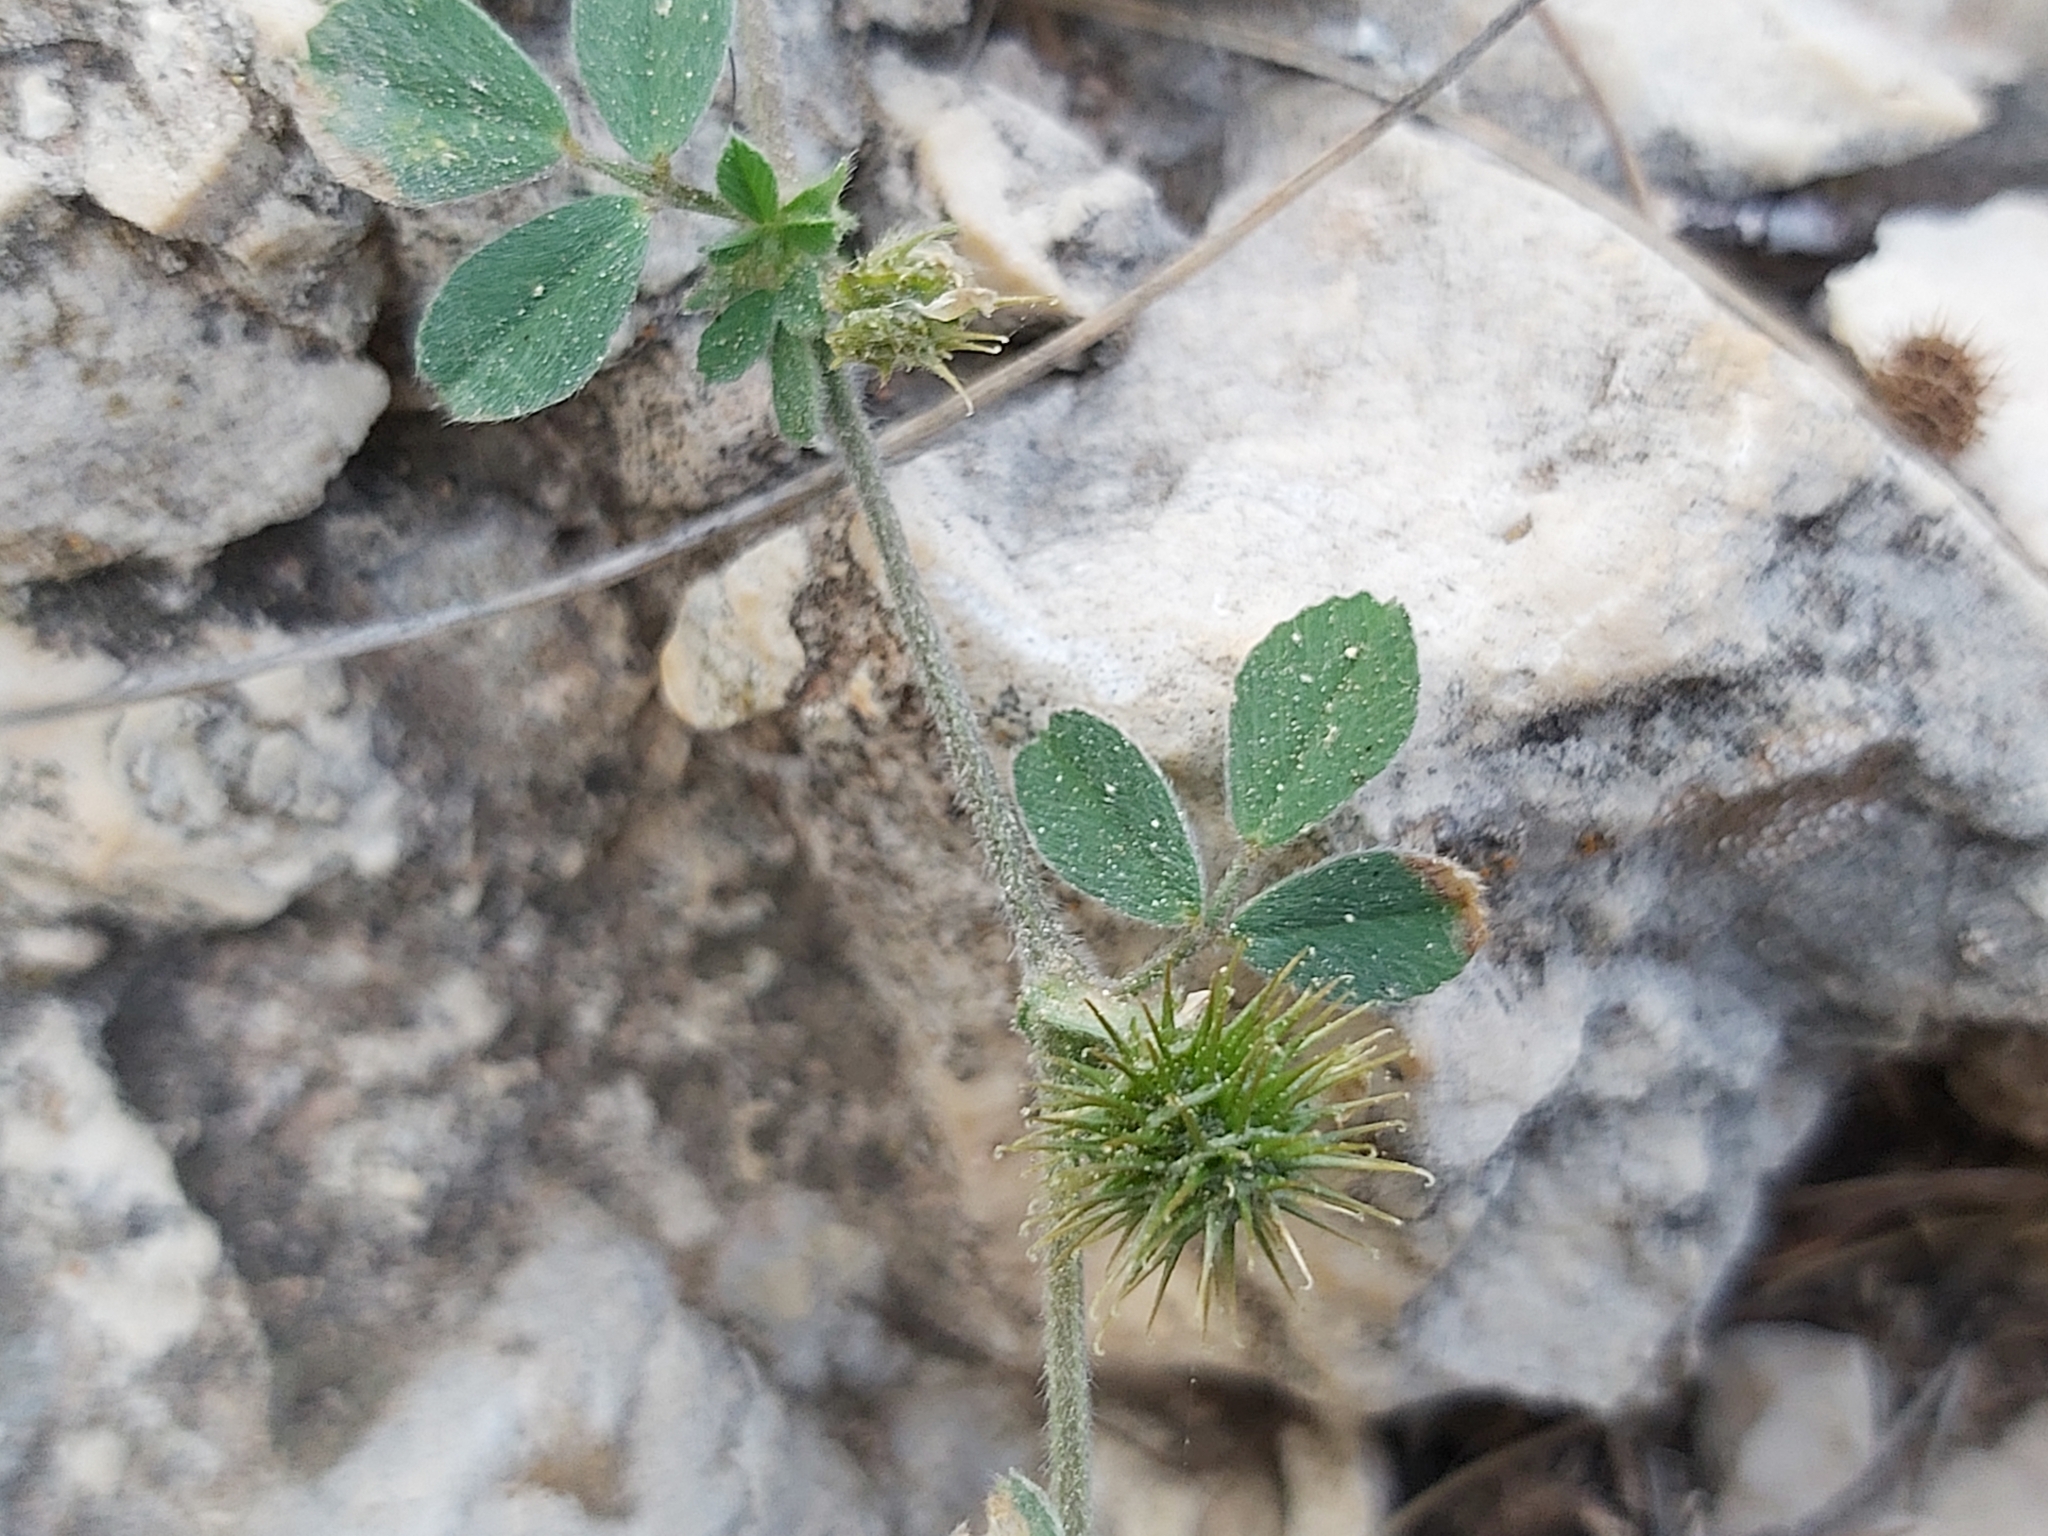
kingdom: Plantae
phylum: Tracheophyta
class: Magnoliopsida
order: Fabales
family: Fabaceae
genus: Medicago
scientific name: Medicago polymorpha
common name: Burclover
